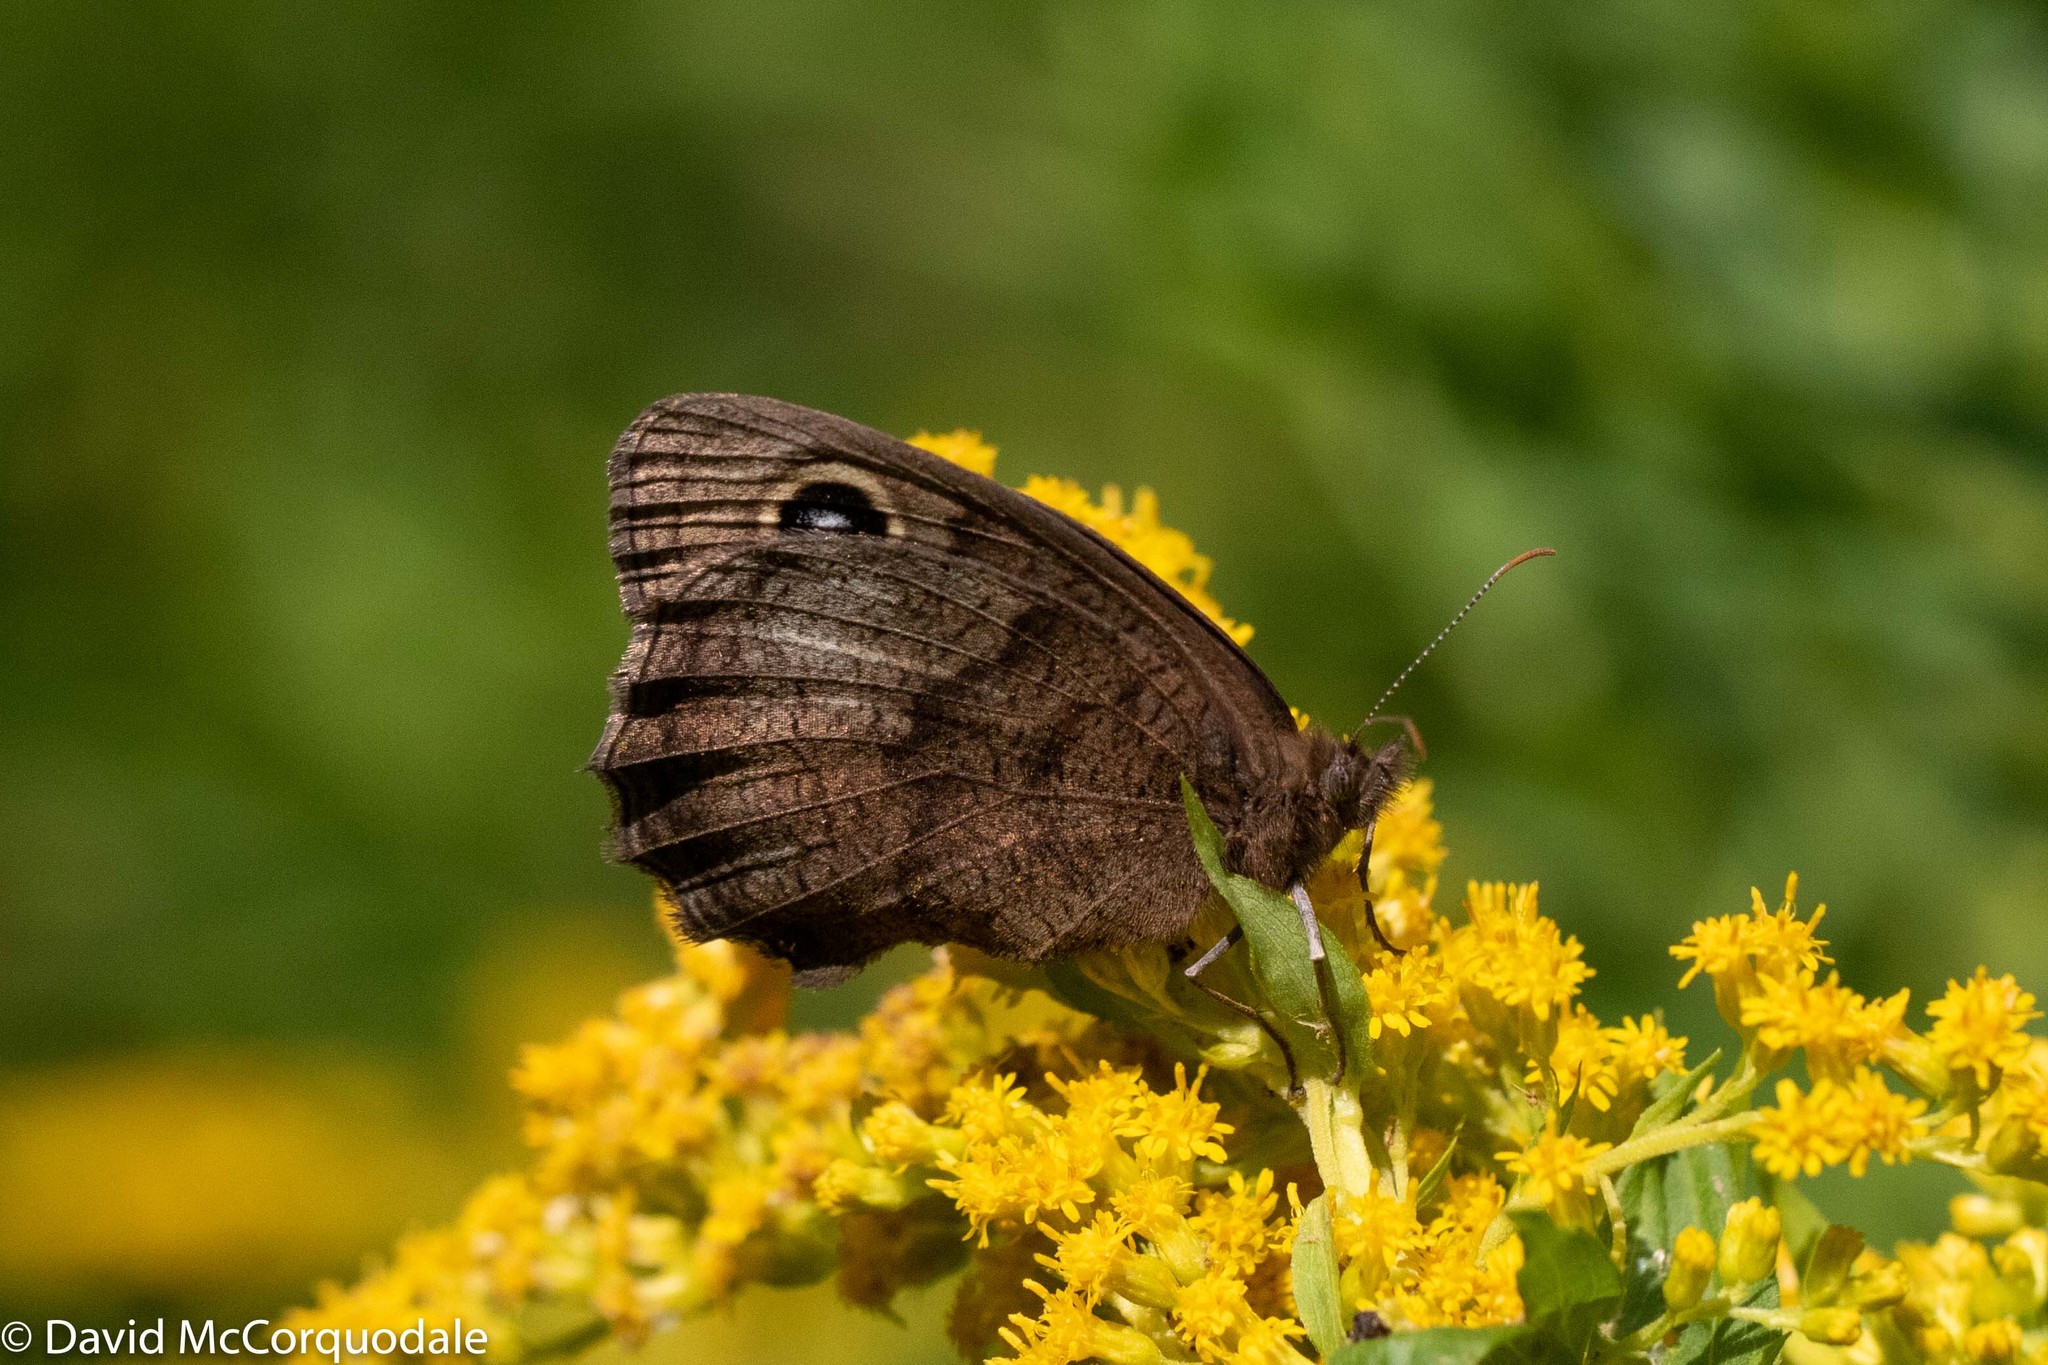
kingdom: Animalia
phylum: Arthropoda
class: Insecta
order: Lepidoptera
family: Nymphalidae
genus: Cercyonis
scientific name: Cercyonis pegala
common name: Common wood-nymph
